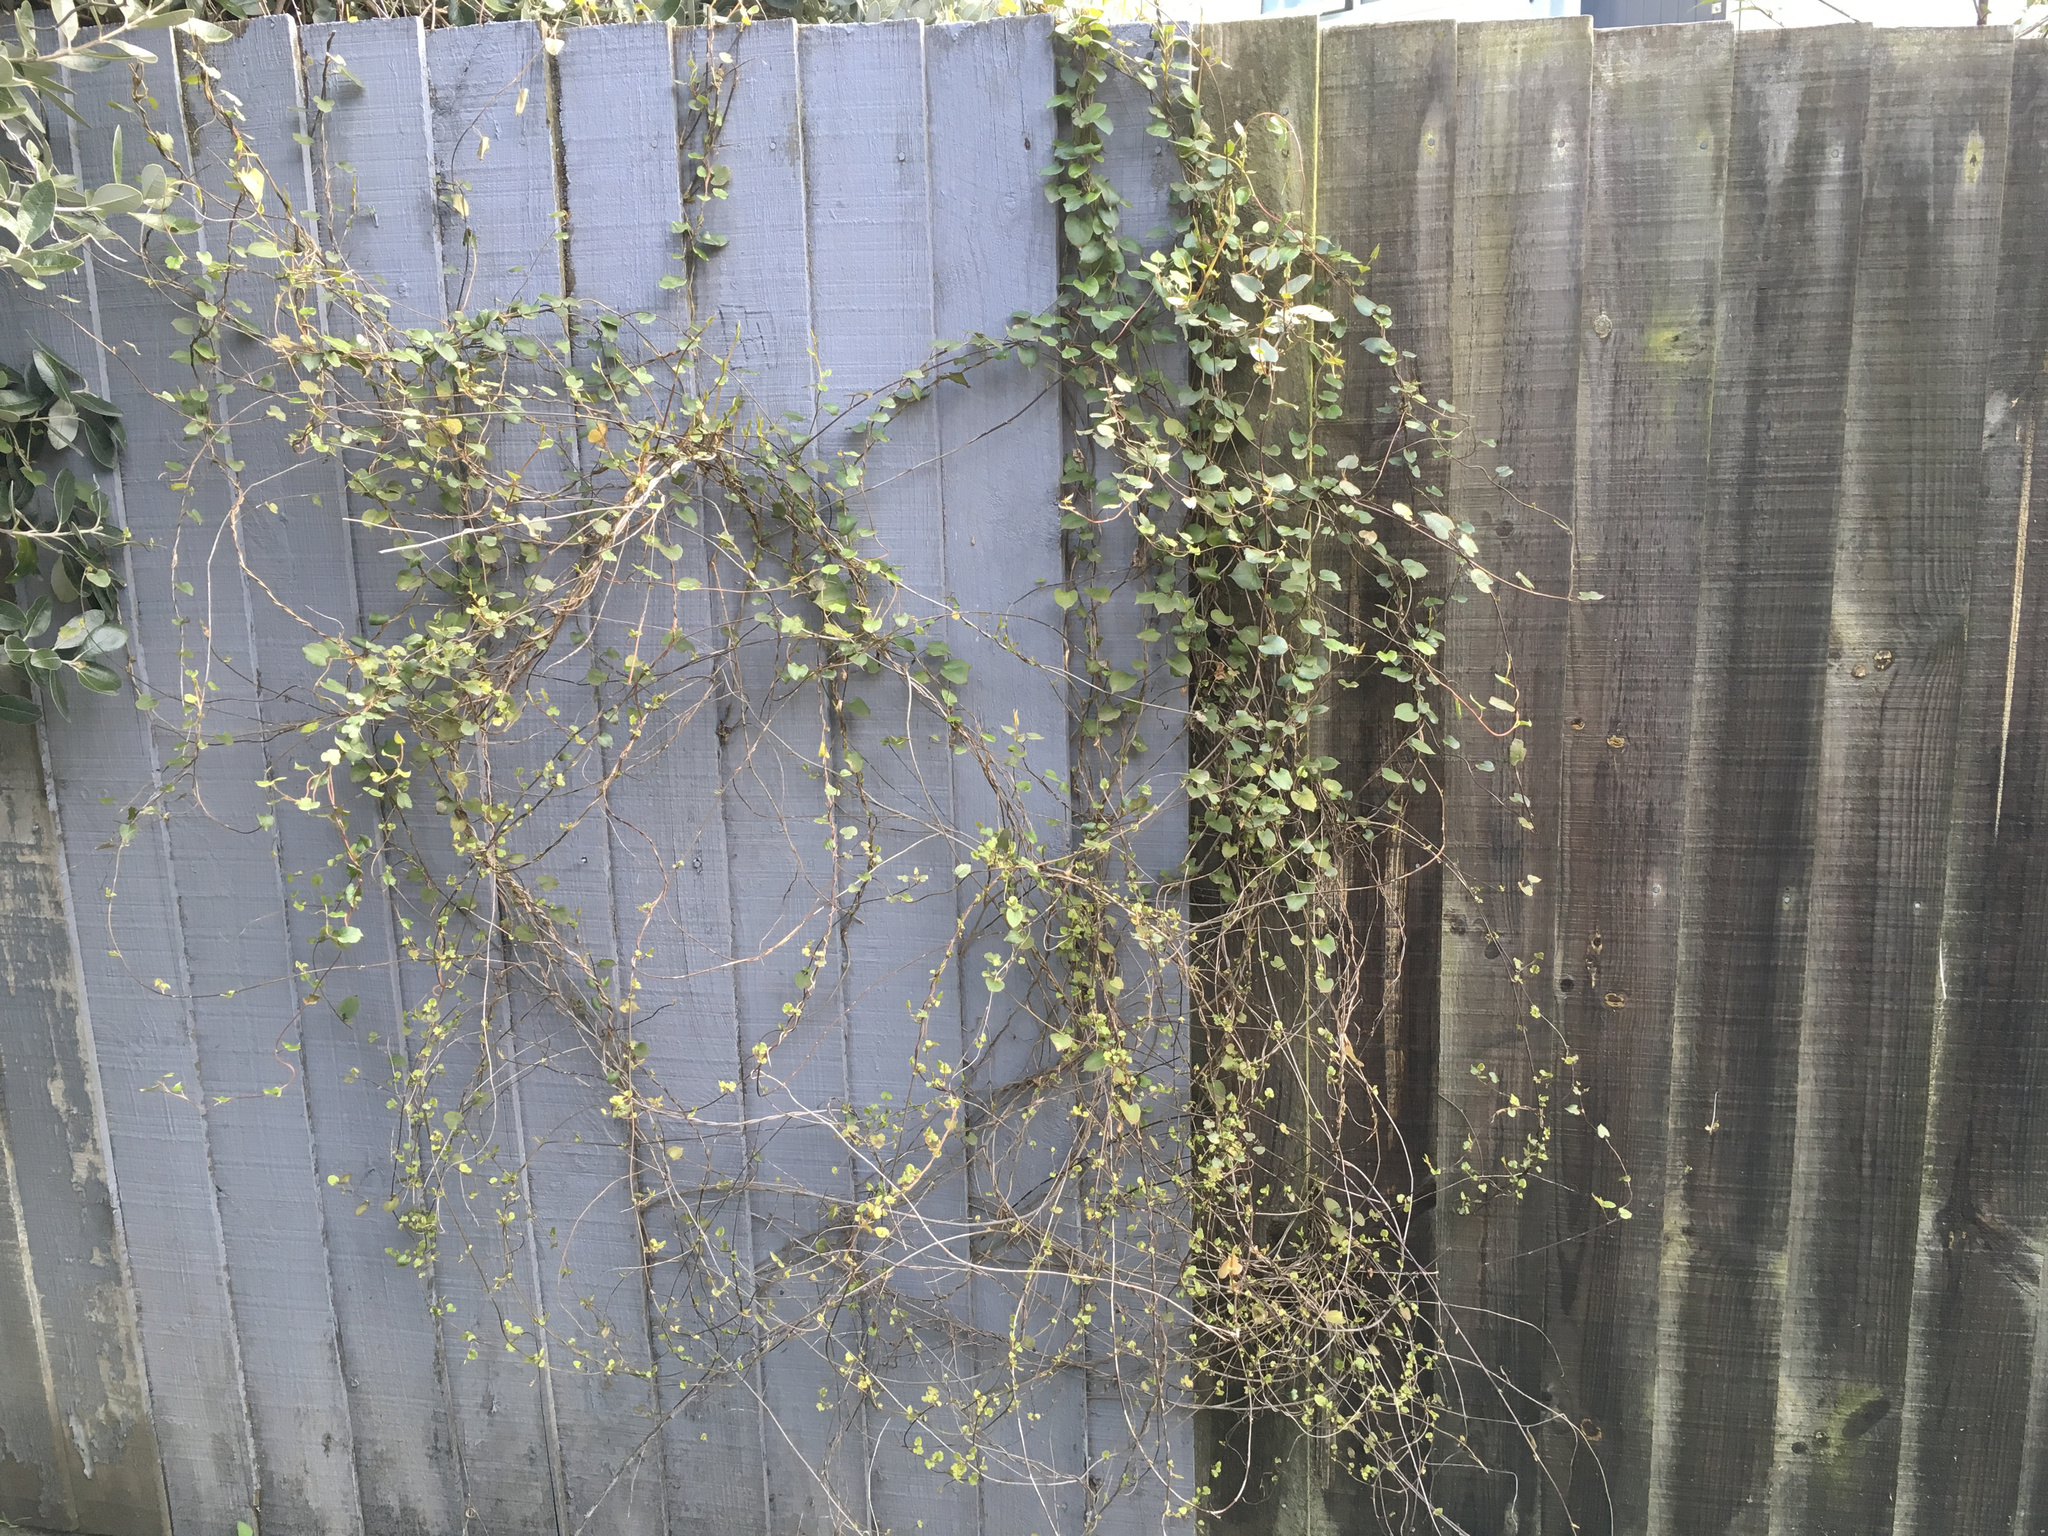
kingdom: Plantae
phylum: Tracheophyta
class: Magnoliopsida
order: Caryophyllales
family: Polygonaceae
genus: Muehlenbeckia
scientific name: Muehlenbeckia australis
